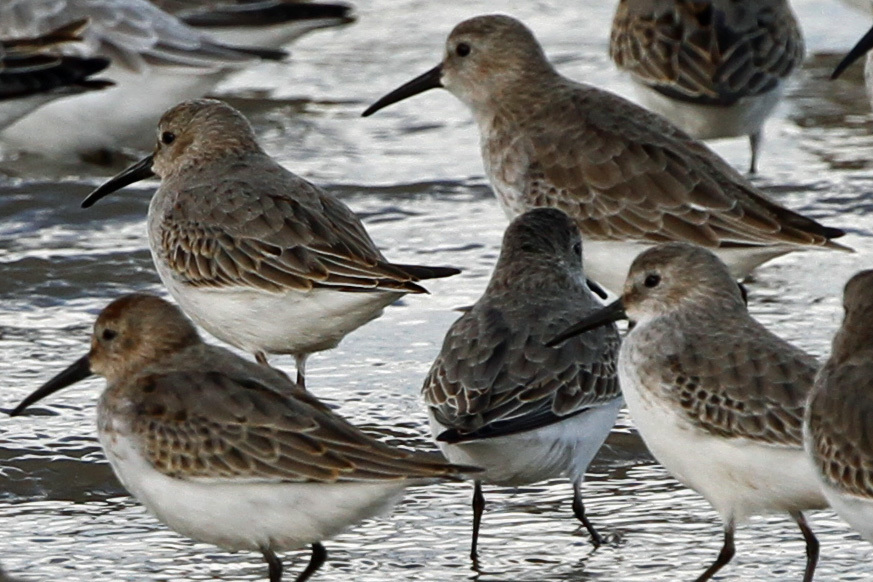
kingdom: Animalia
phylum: Chordata
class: Aves
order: Charadriiformes
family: Scolopacidae
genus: Calidris
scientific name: Calidris alpina
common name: Dunlin
